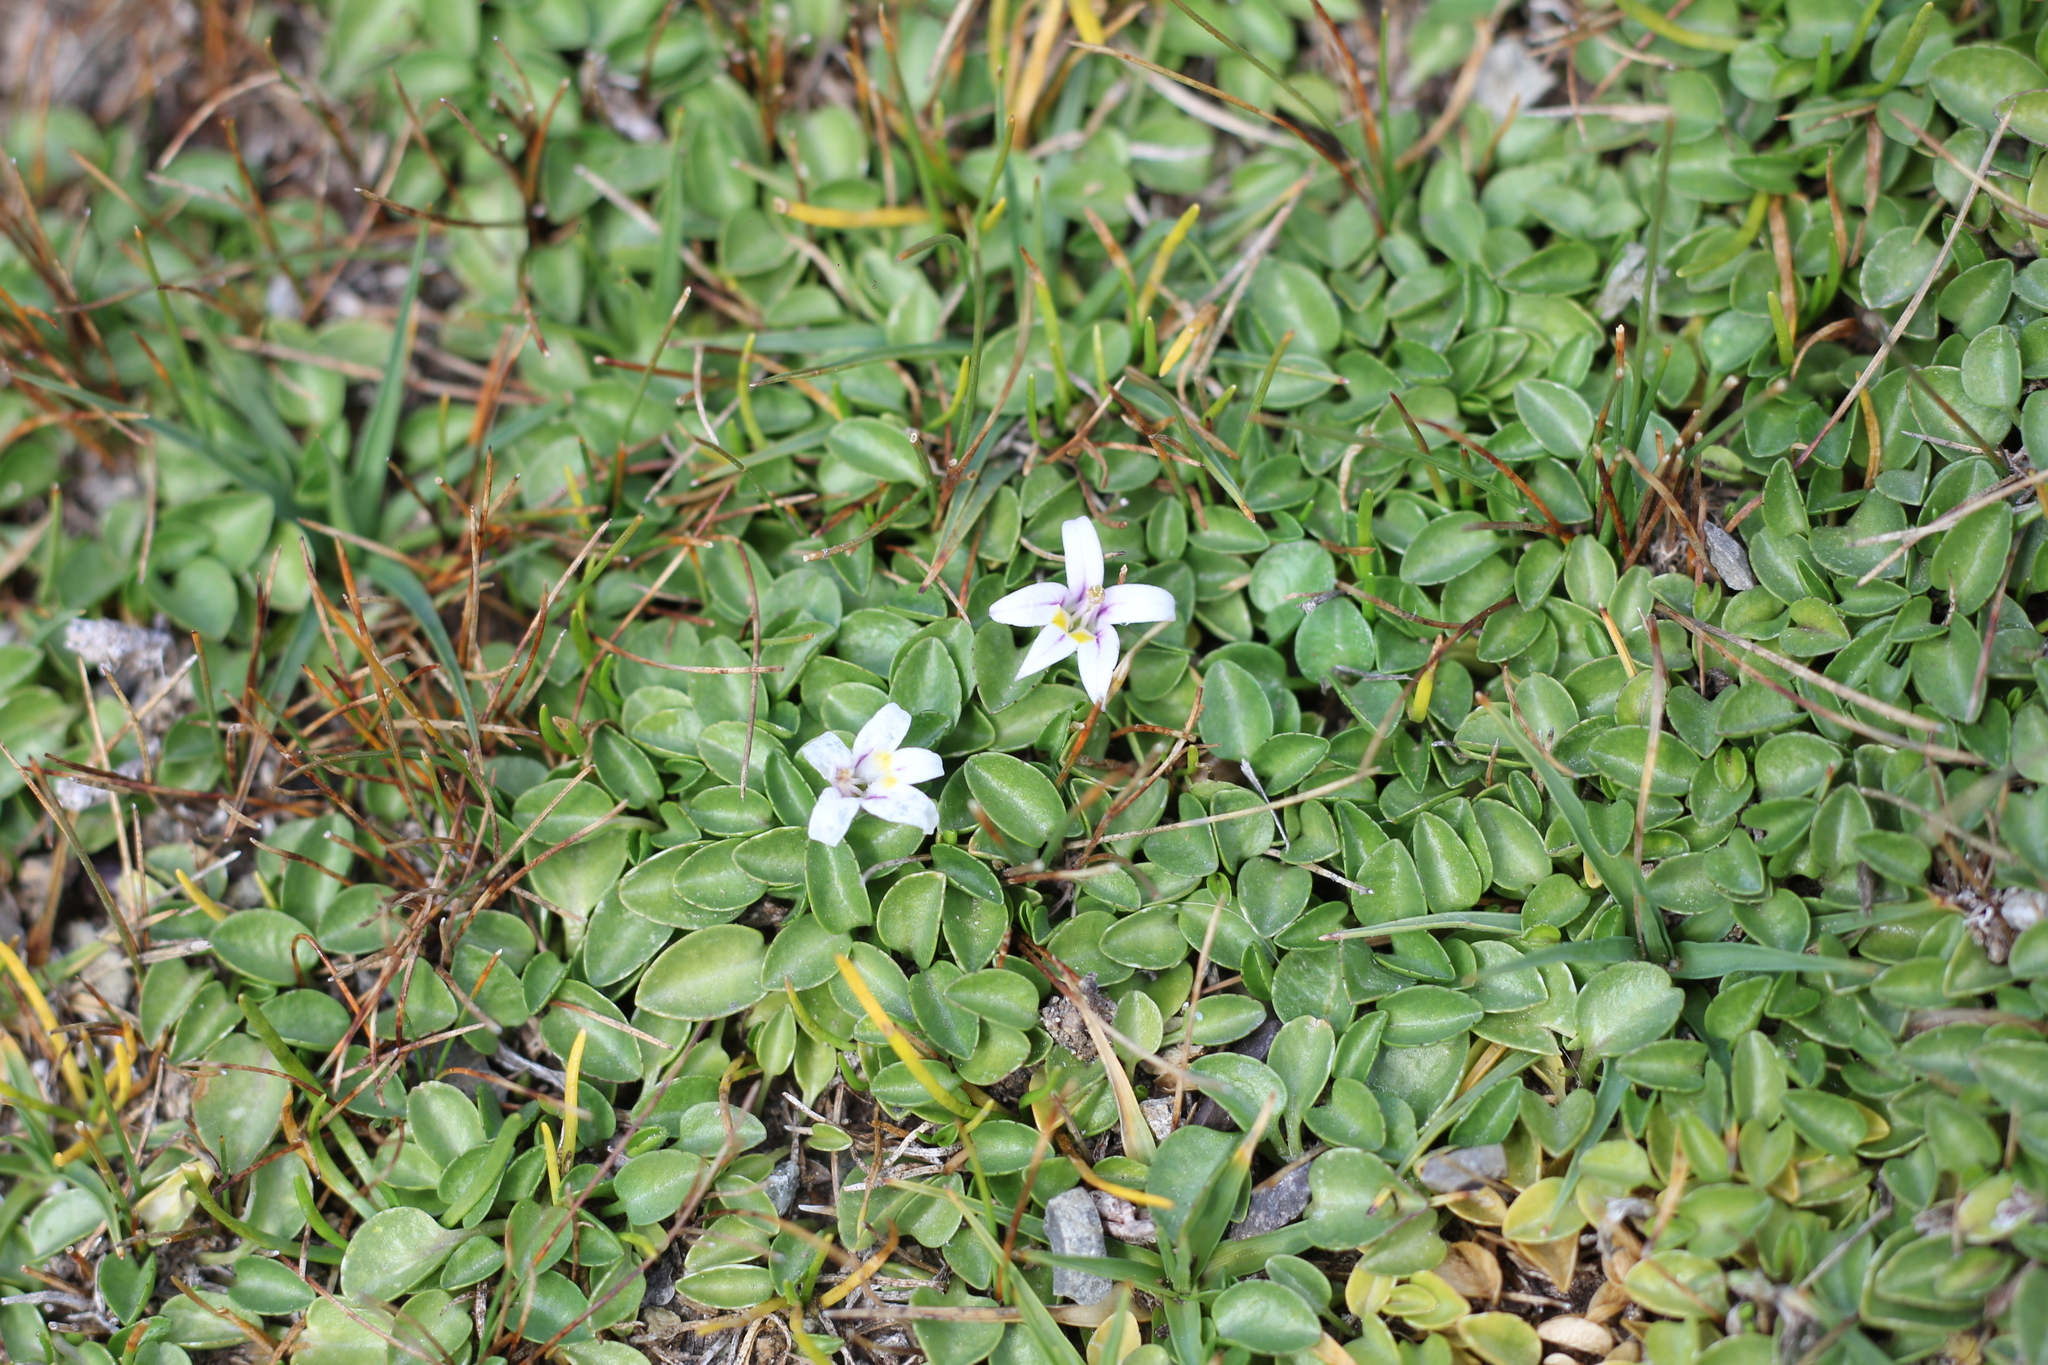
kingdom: Plantae
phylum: Tracheophyta
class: Magnoliopsida
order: Asterales
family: Campanulaceae
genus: Lobelia
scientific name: Lobelia oligophylla
